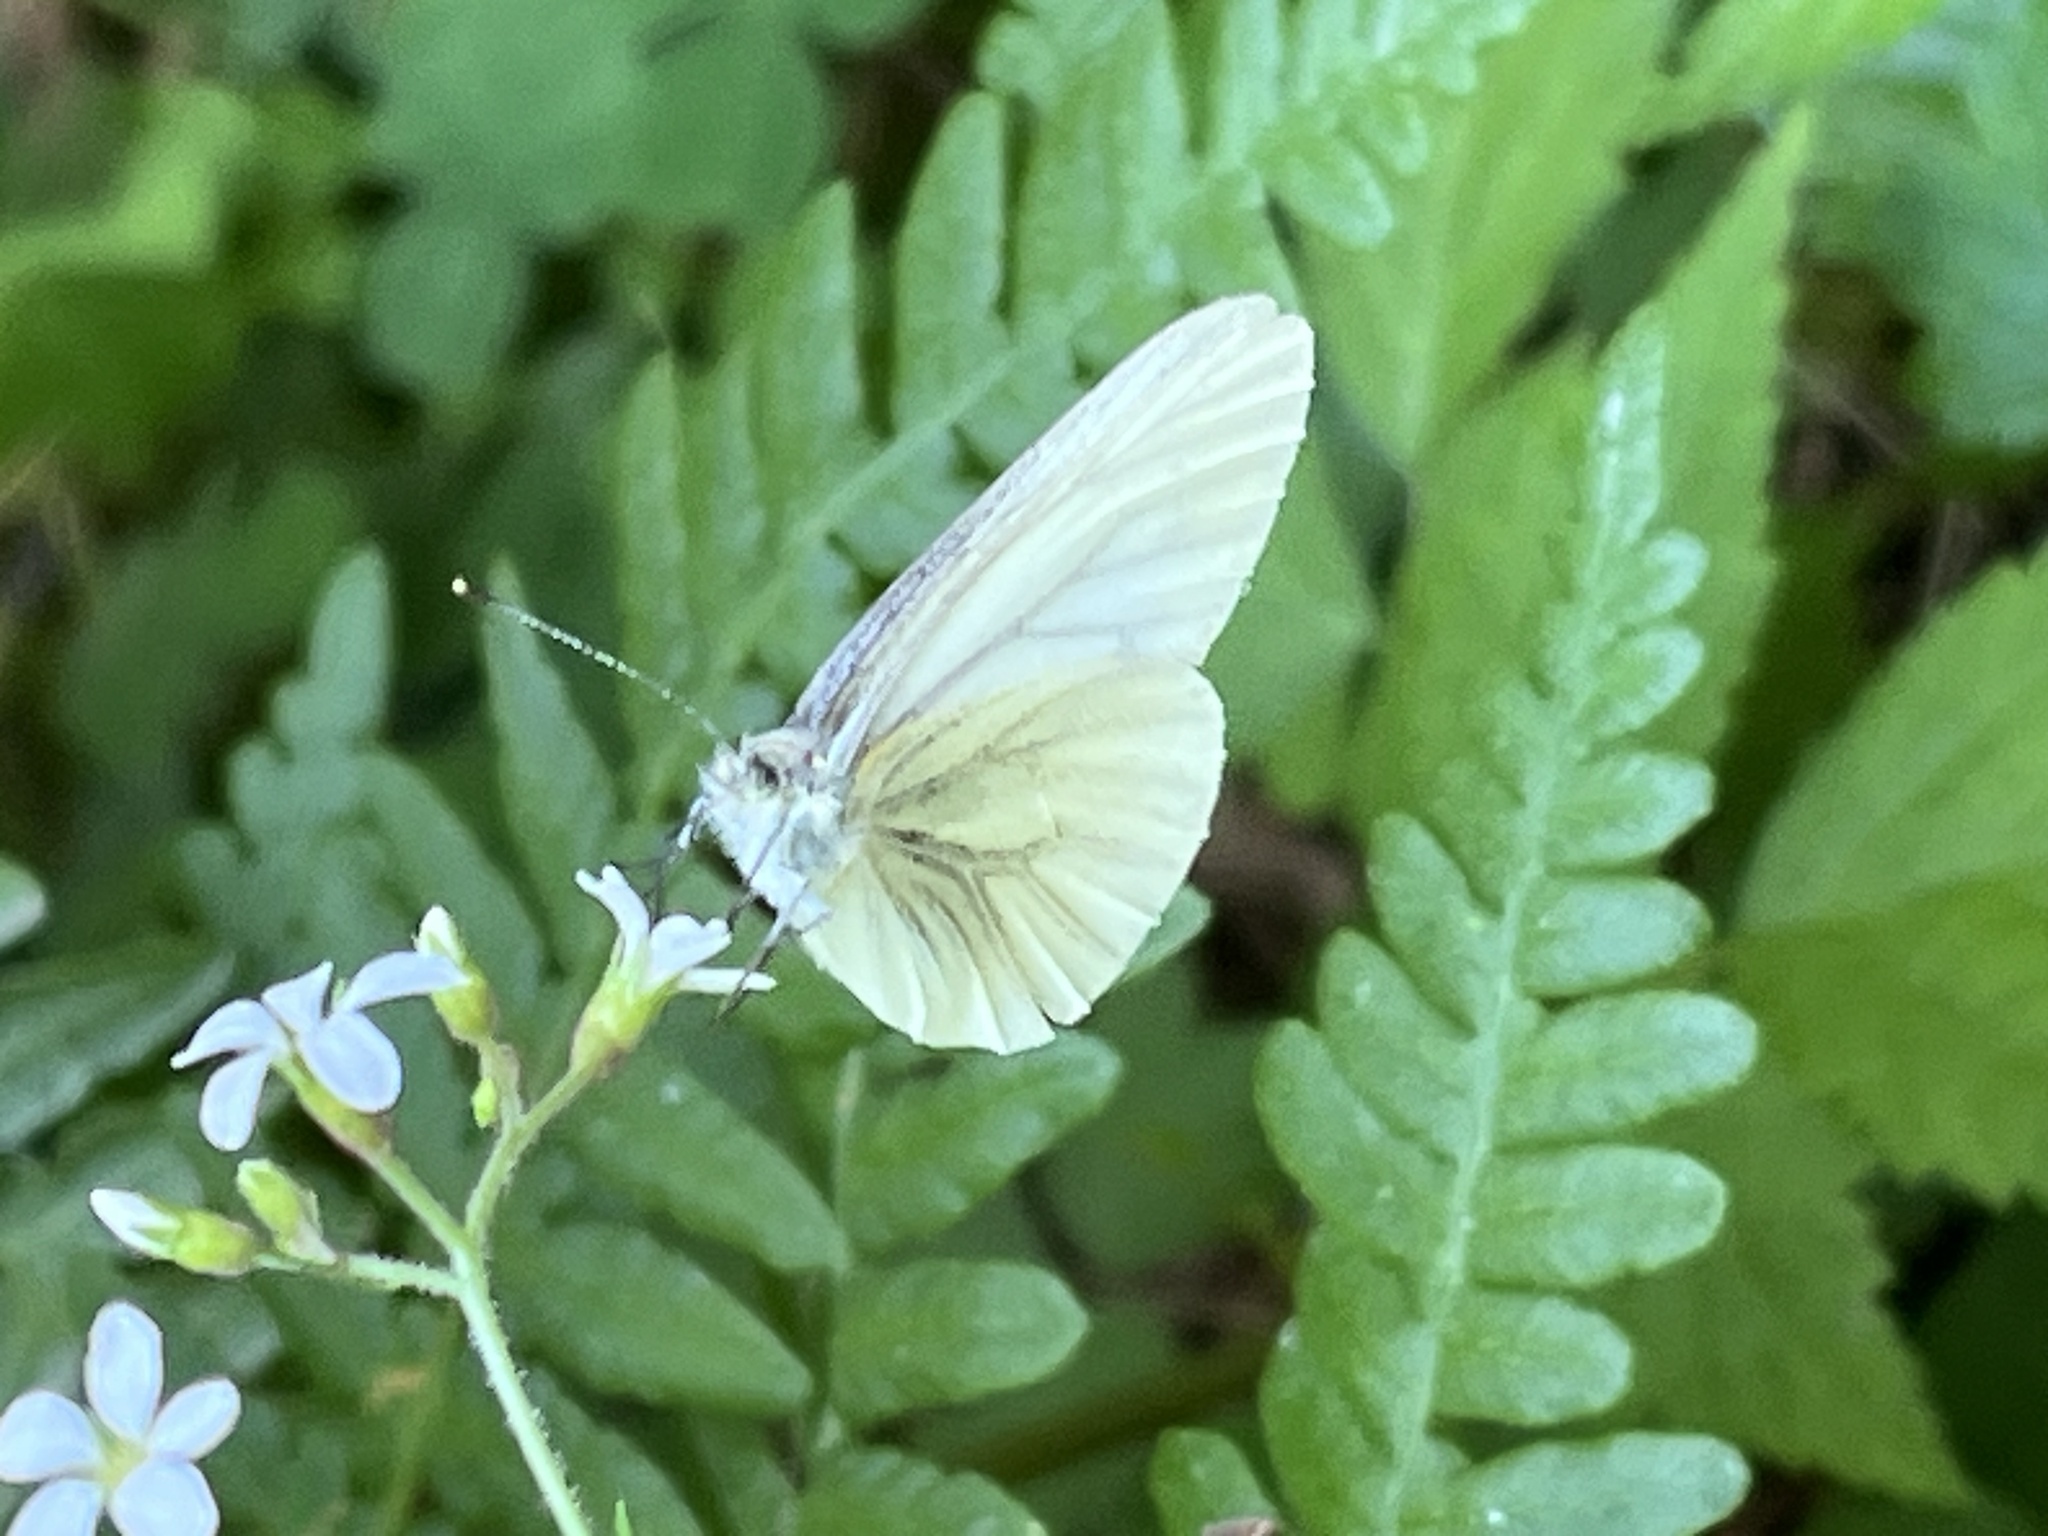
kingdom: Animalia
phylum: Arthropoda
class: Insecta
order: Lepidoptera
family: Pieridae
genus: Pieris
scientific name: Pieris marginalis
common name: Margined white
